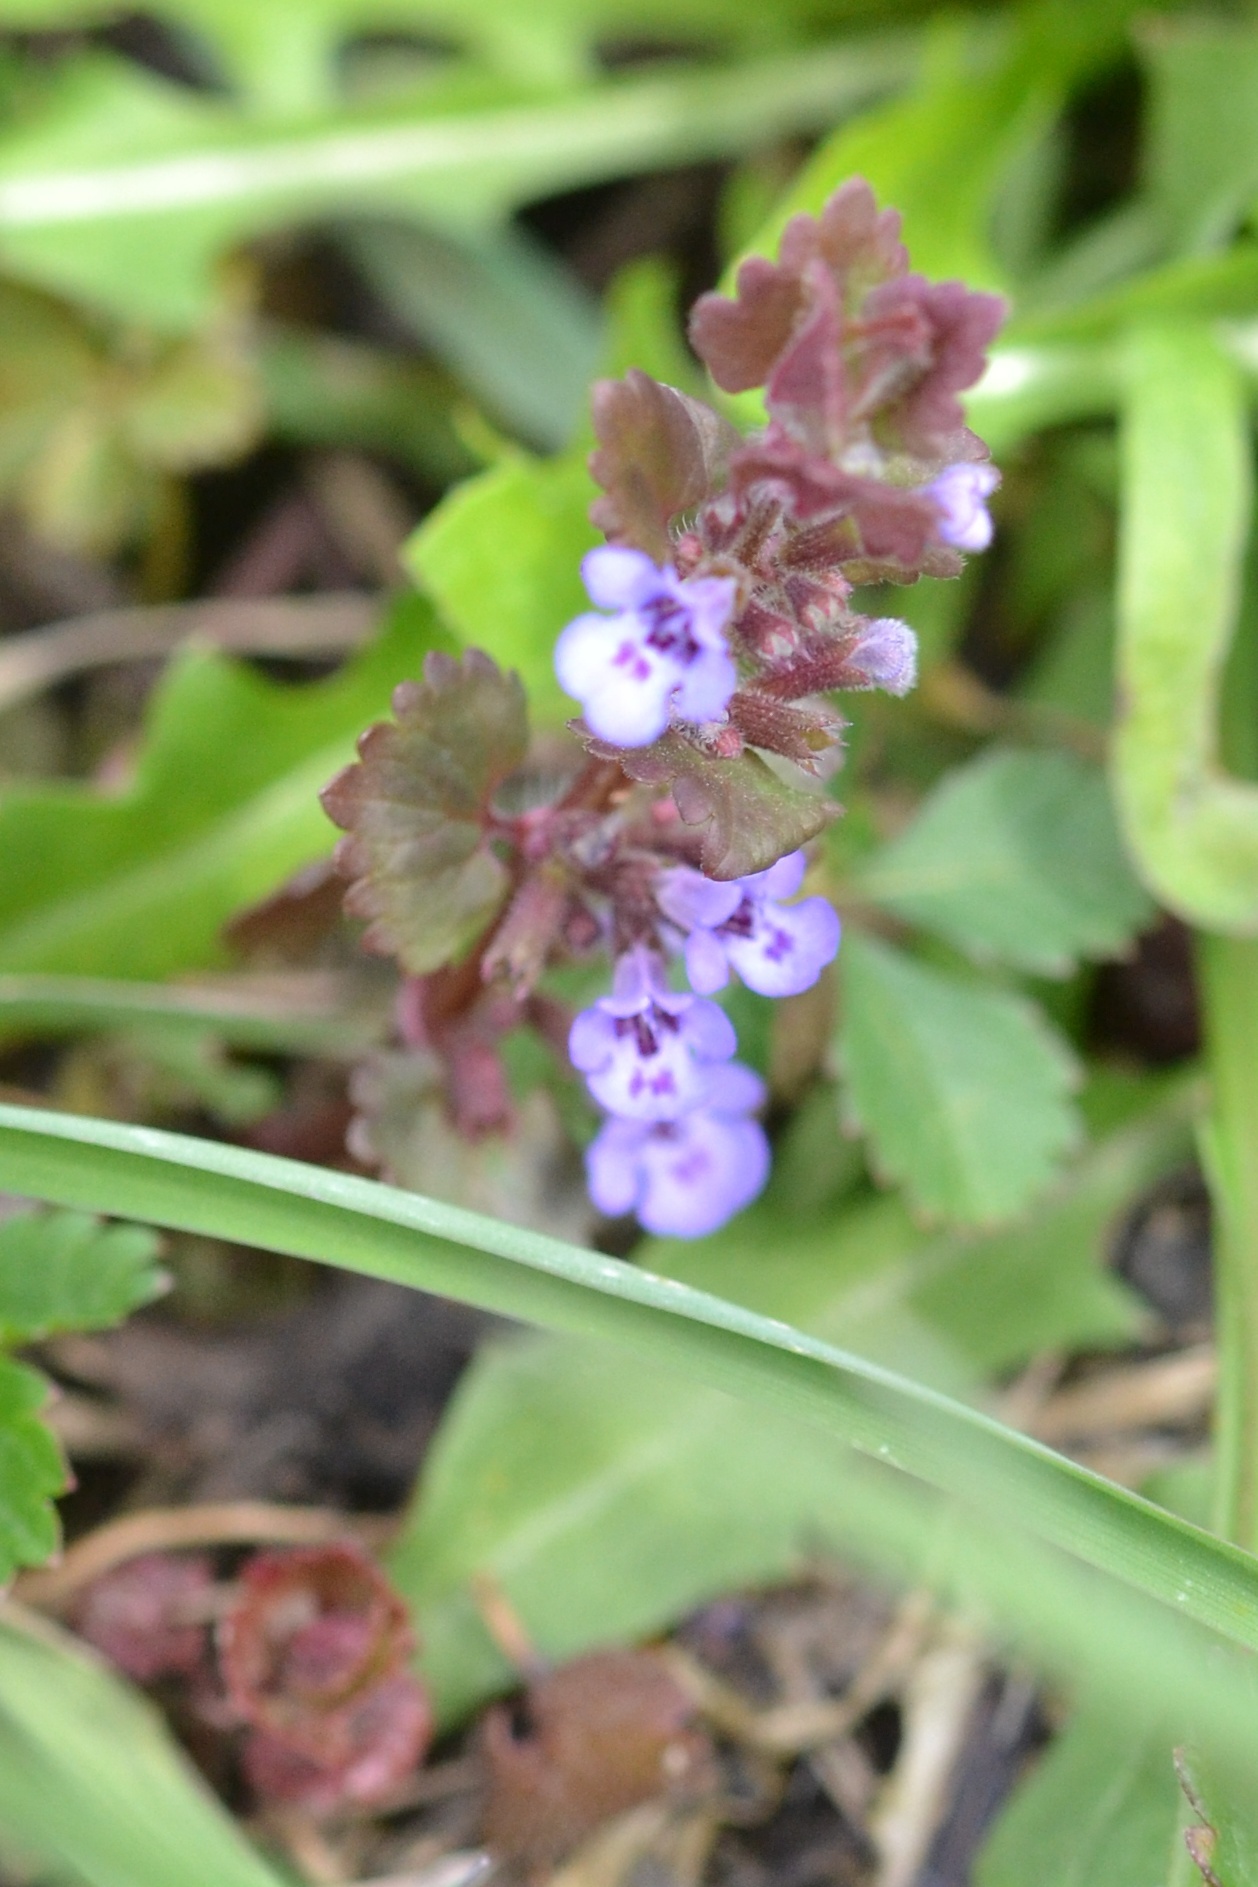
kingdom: Plantae
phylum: Tracheophyta
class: Magnoliopsida
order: Lamiales
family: Lamiaceae
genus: Glechoma
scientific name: Glechoma hederacea
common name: Ground ivy
